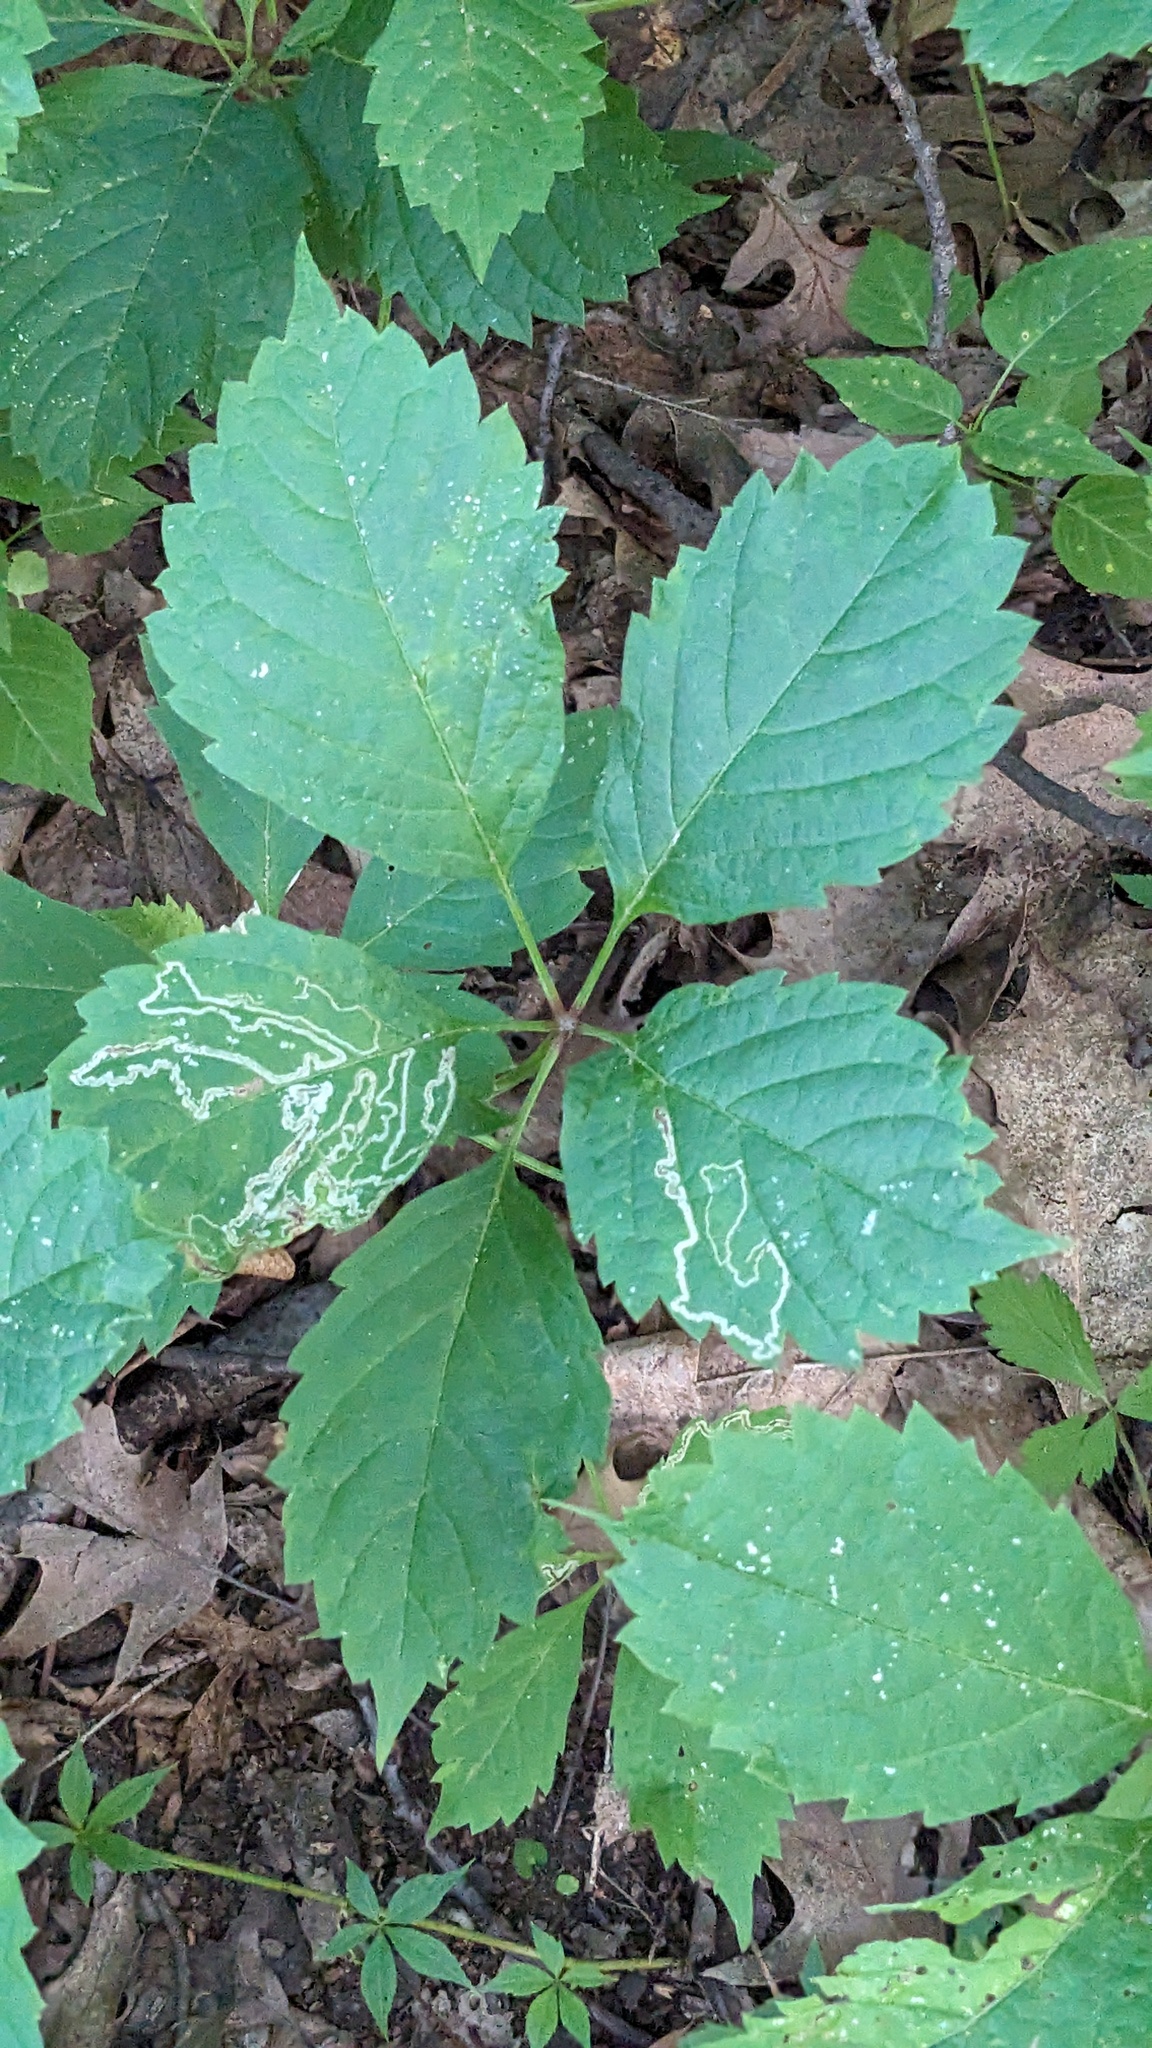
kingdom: Plantae
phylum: Tracheophyta
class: Magnoliopsida
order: Vitales
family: Vitaceae
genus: Parthenocissus
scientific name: Parthenocissus inserta
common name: False virginia-creeper
